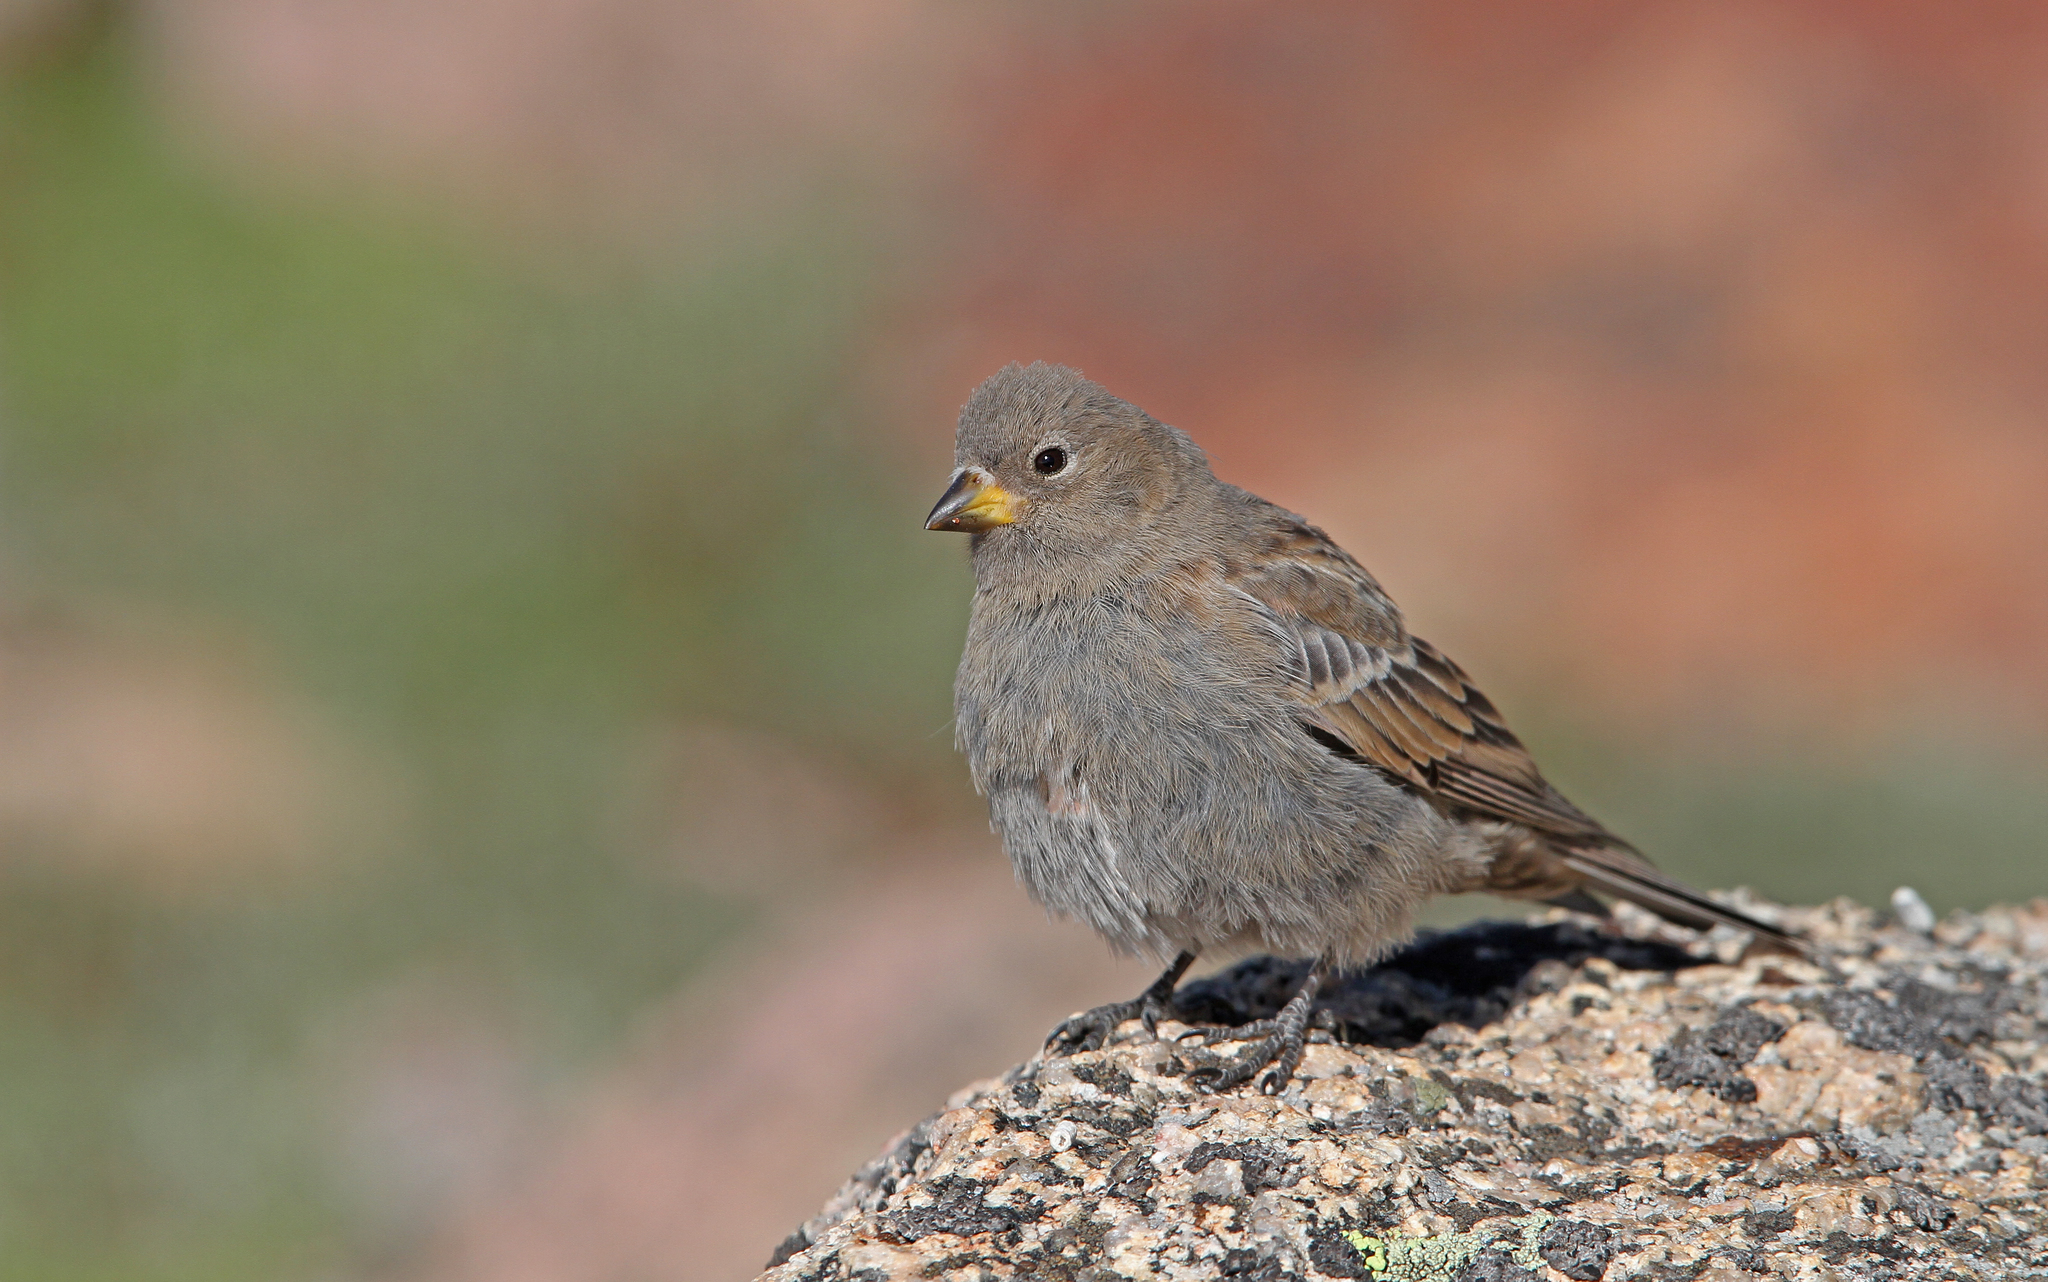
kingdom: Animalia
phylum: Chordata
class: Aves
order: Passeriformes
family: Fringillidae
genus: Leucosticte
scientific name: Leucosticte australis
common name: Brown-capped rosy-finch
